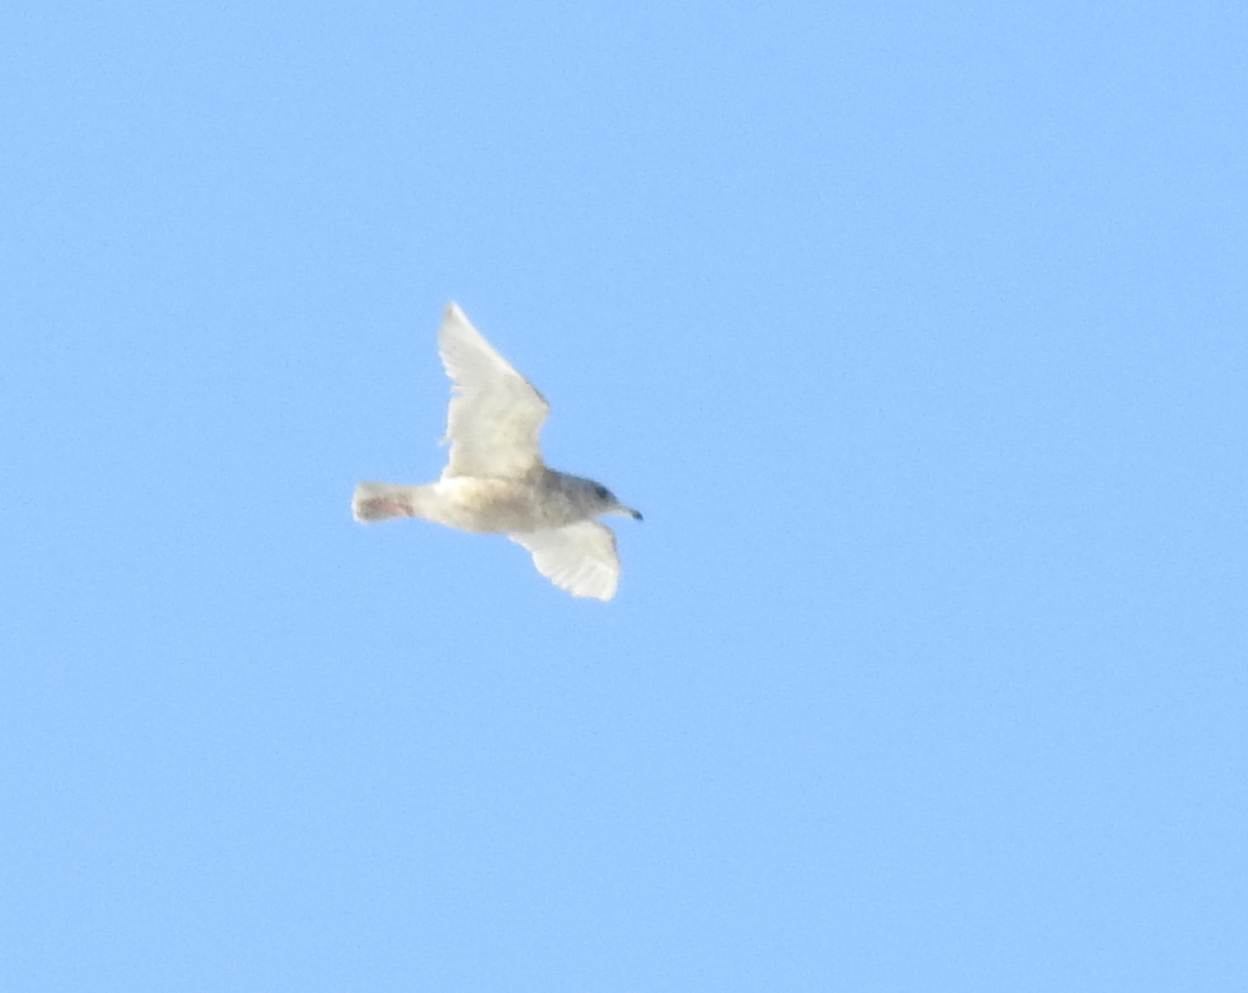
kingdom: Animalia
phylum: Chordata
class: Aves
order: Charadriiformes
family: Laridae
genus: Larus
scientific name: Larus hyperboreus
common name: Glaucous gull
